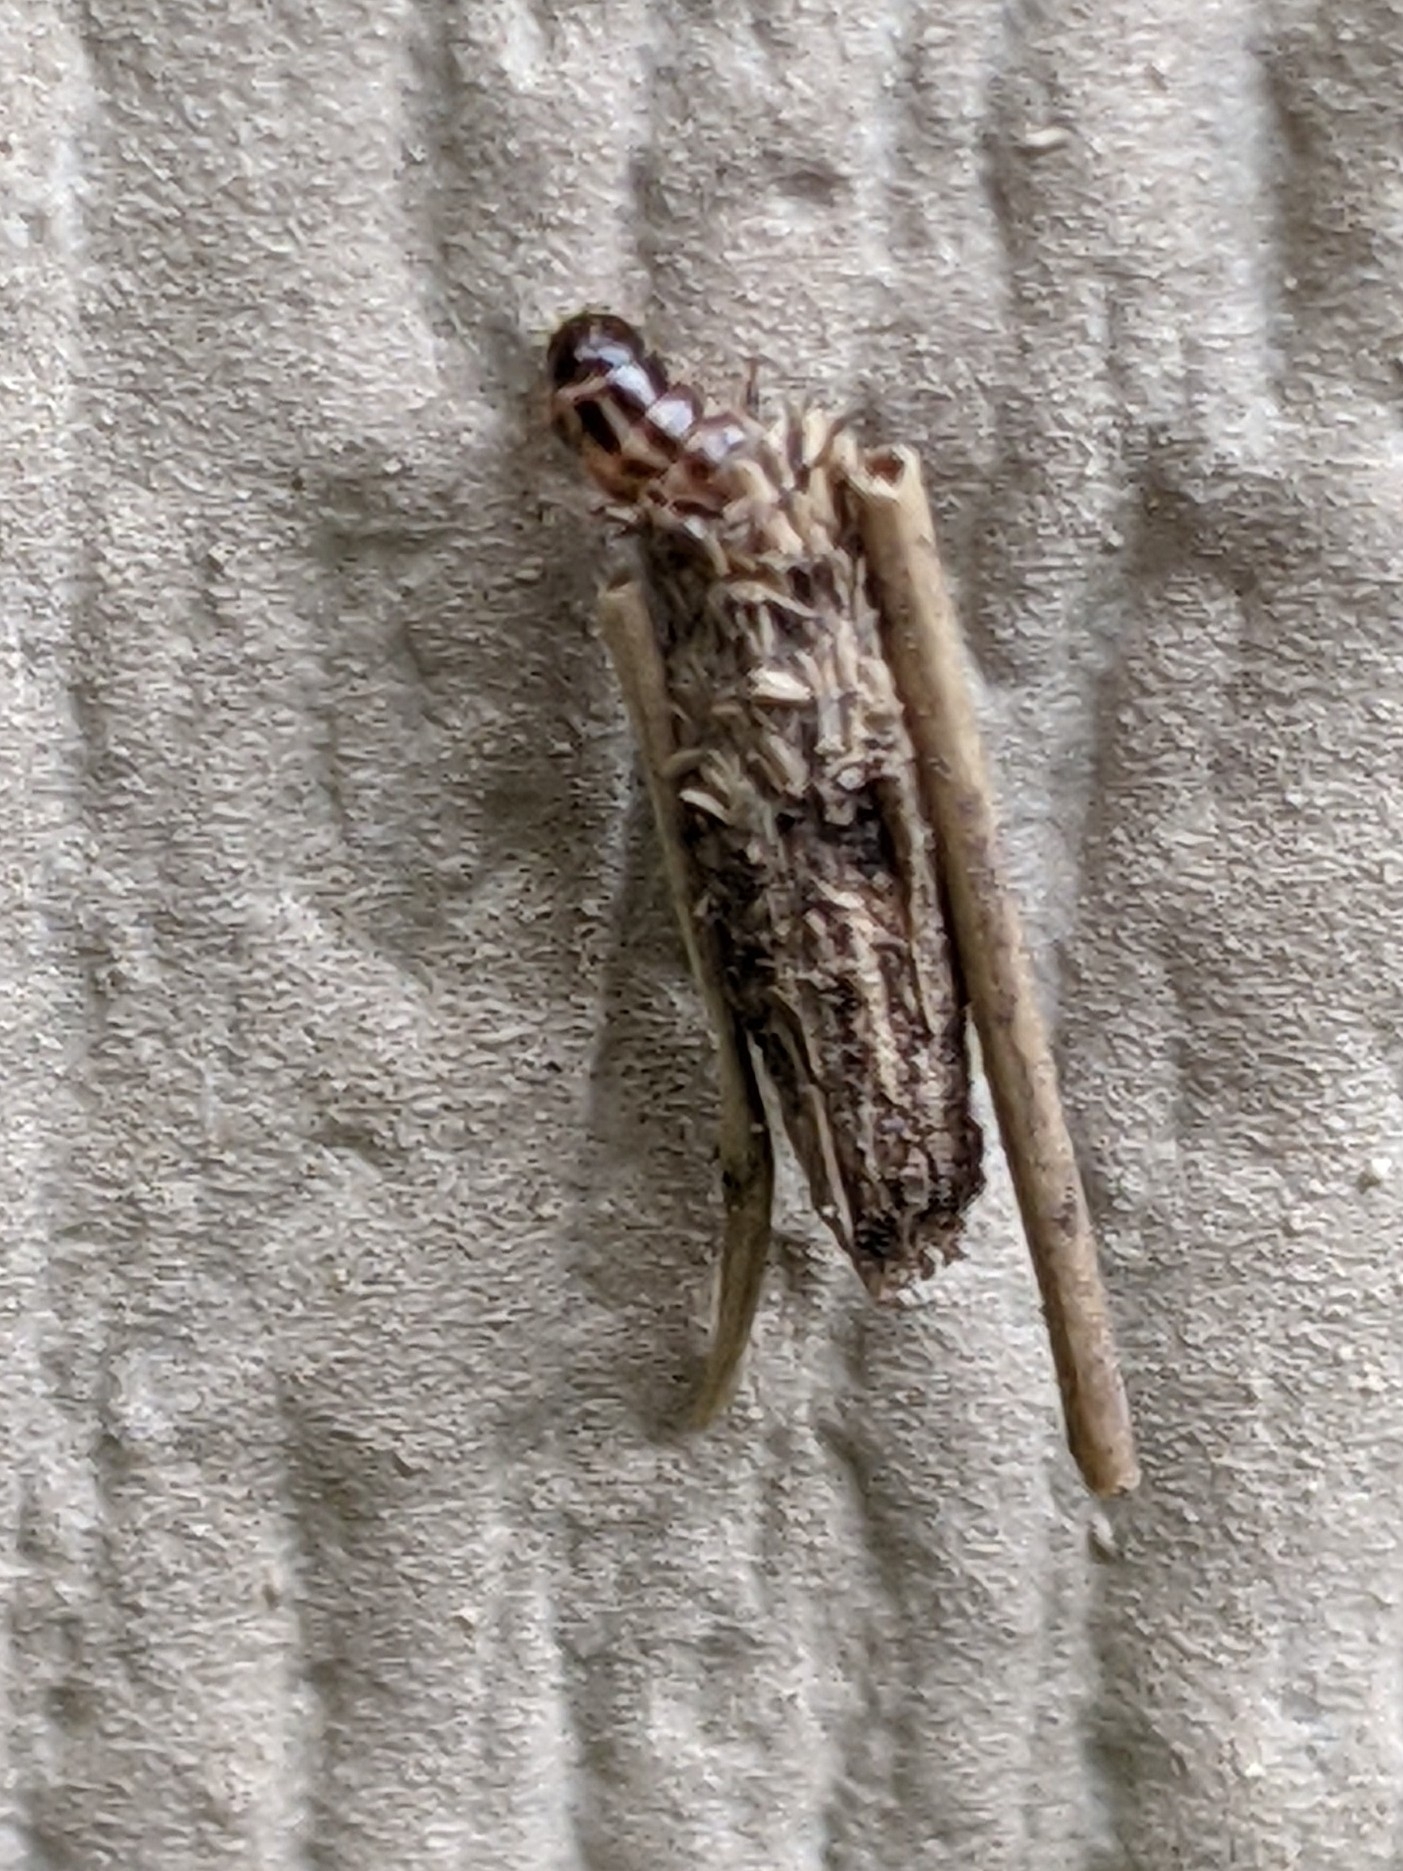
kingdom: Animalia
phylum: Arthropoda
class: Insecta
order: Lepidoptera
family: Psychidae
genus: Psyche
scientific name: Psyche casta
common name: Common sweep
